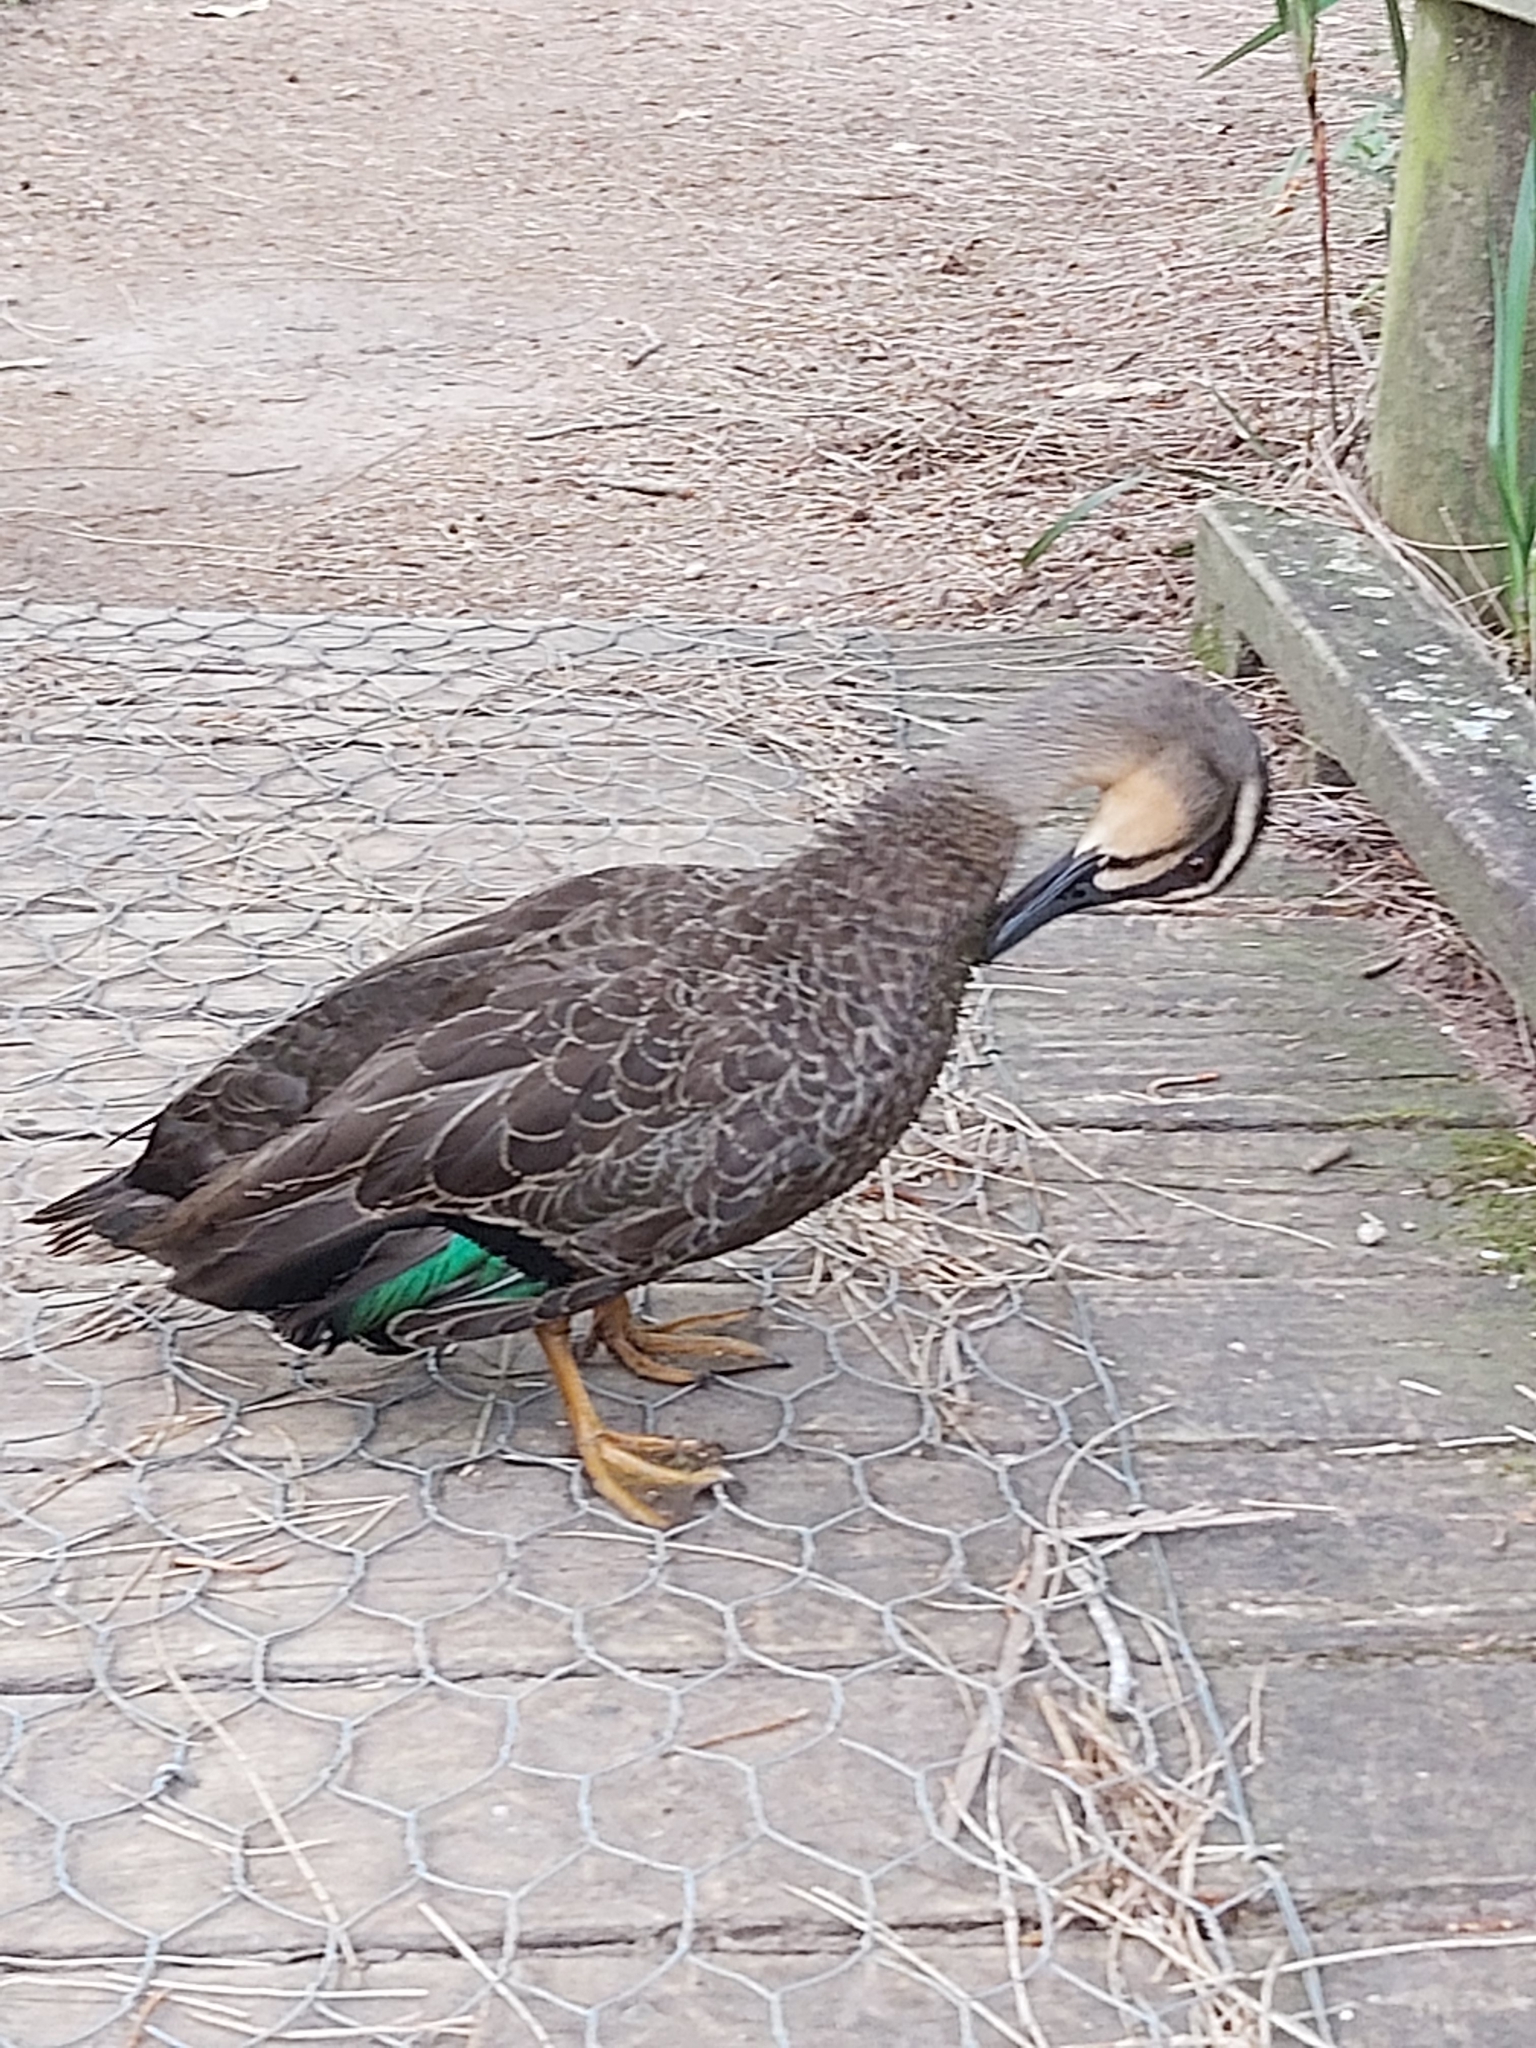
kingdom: Animalia
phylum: Chordata
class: Aves
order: Anseriformes
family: Anatidae
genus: Anas
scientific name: Anas
